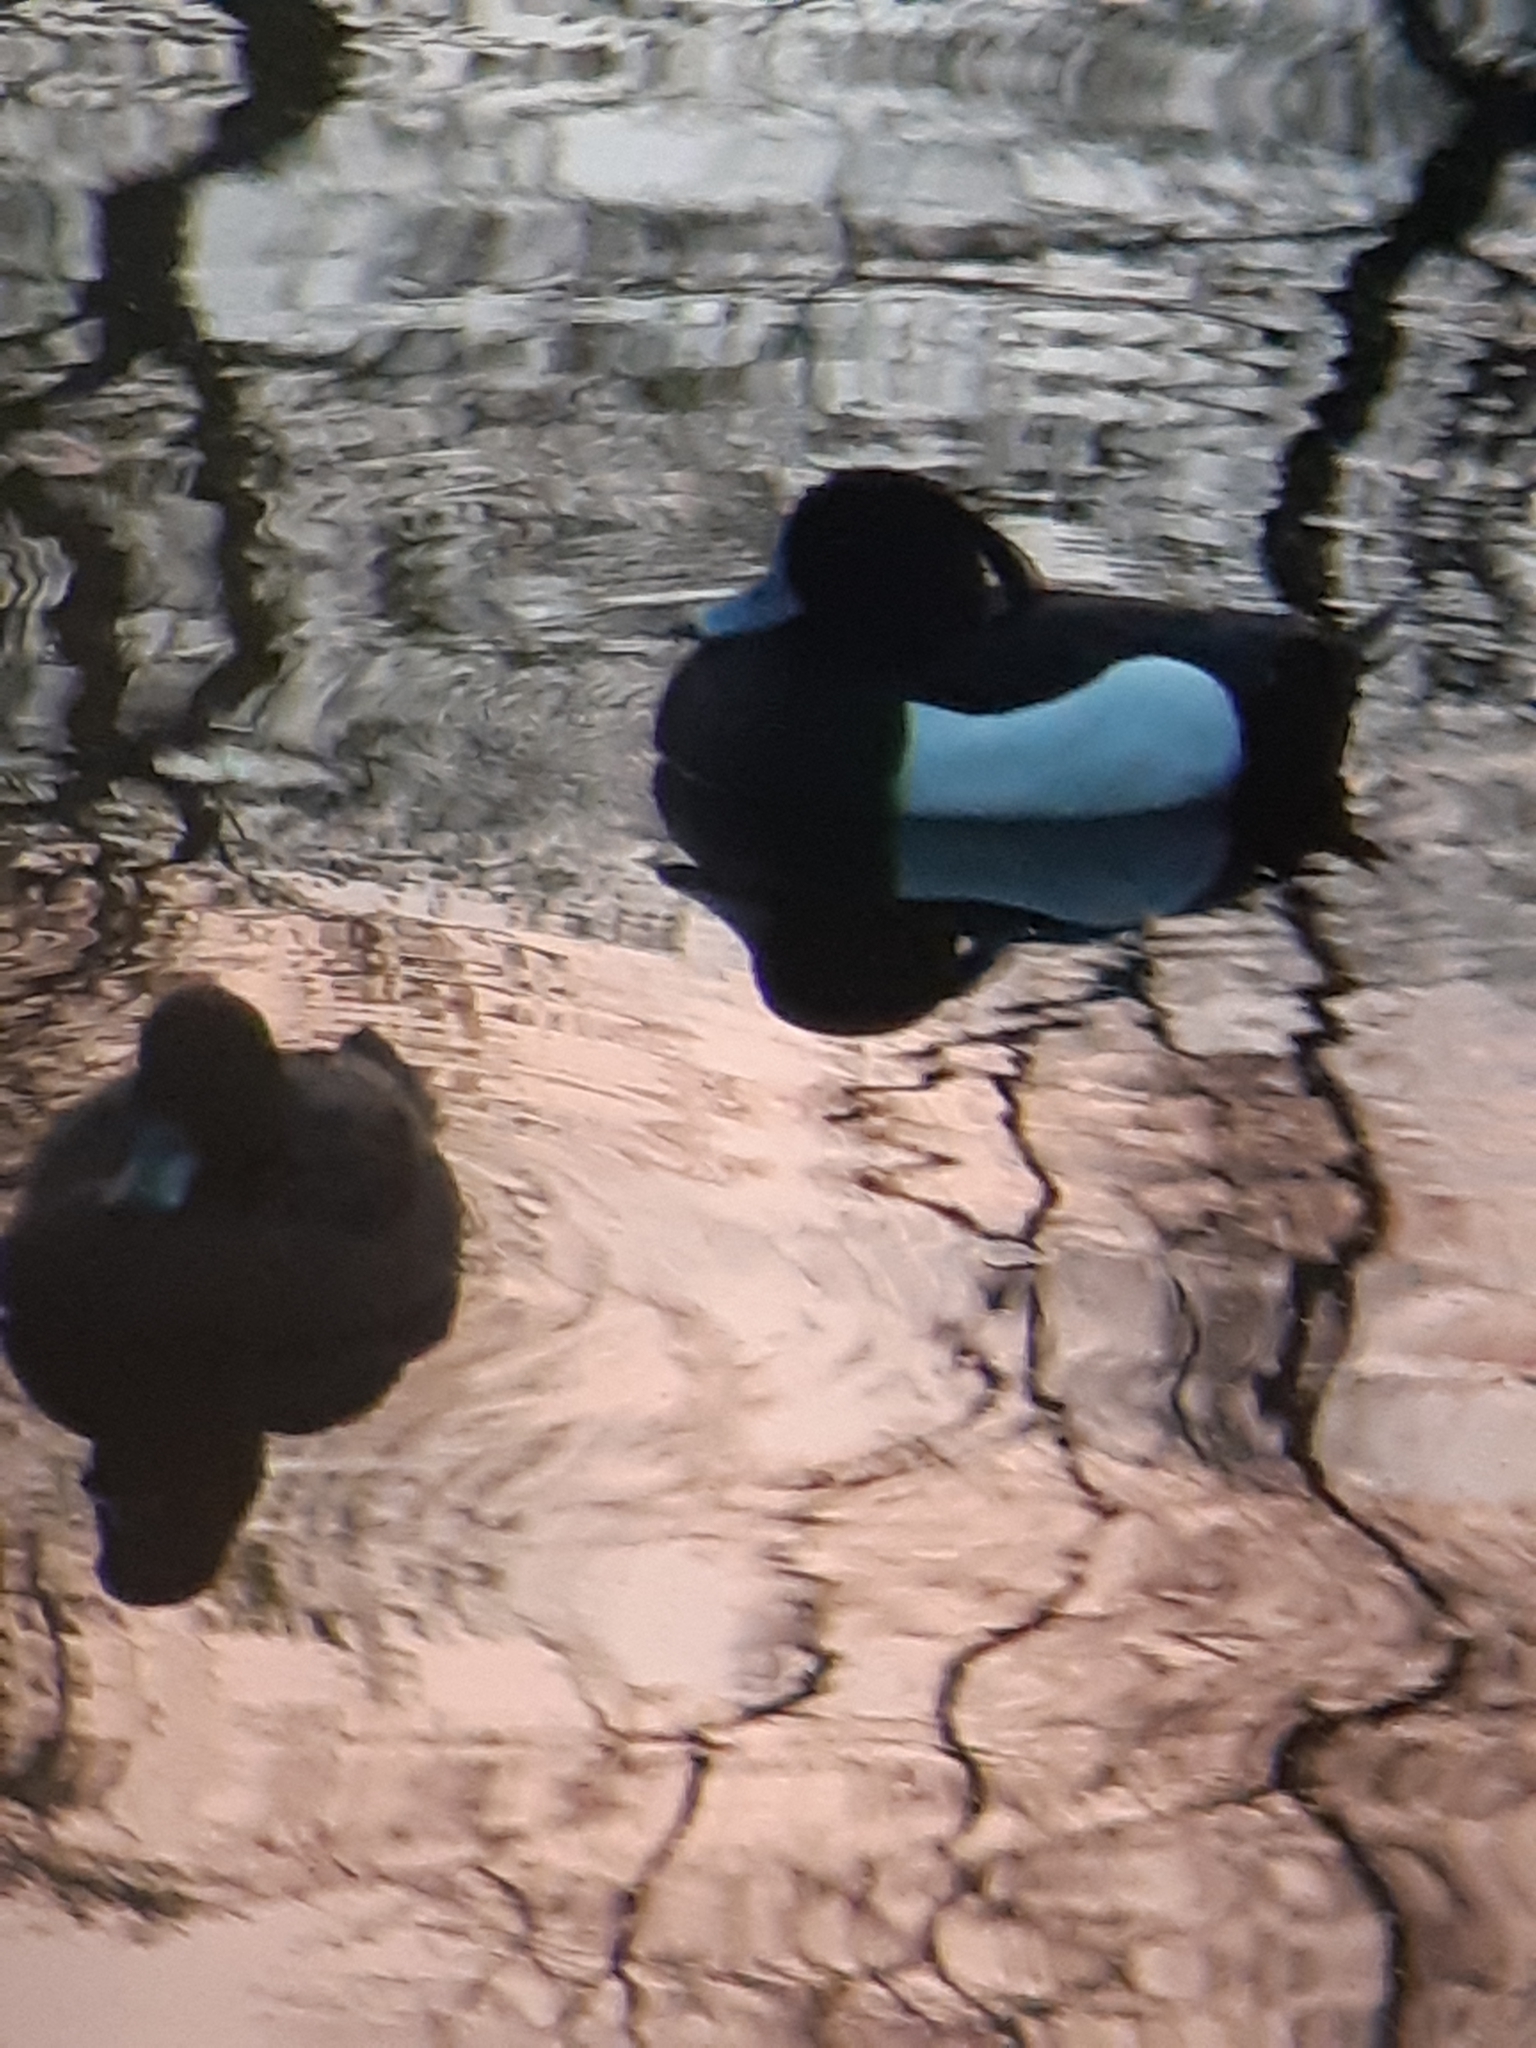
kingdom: Animalia
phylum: Chordata
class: Aves
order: Anseriformes
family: Anatidae
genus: Aythya
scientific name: Aythya fuligula
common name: Tufted duck
